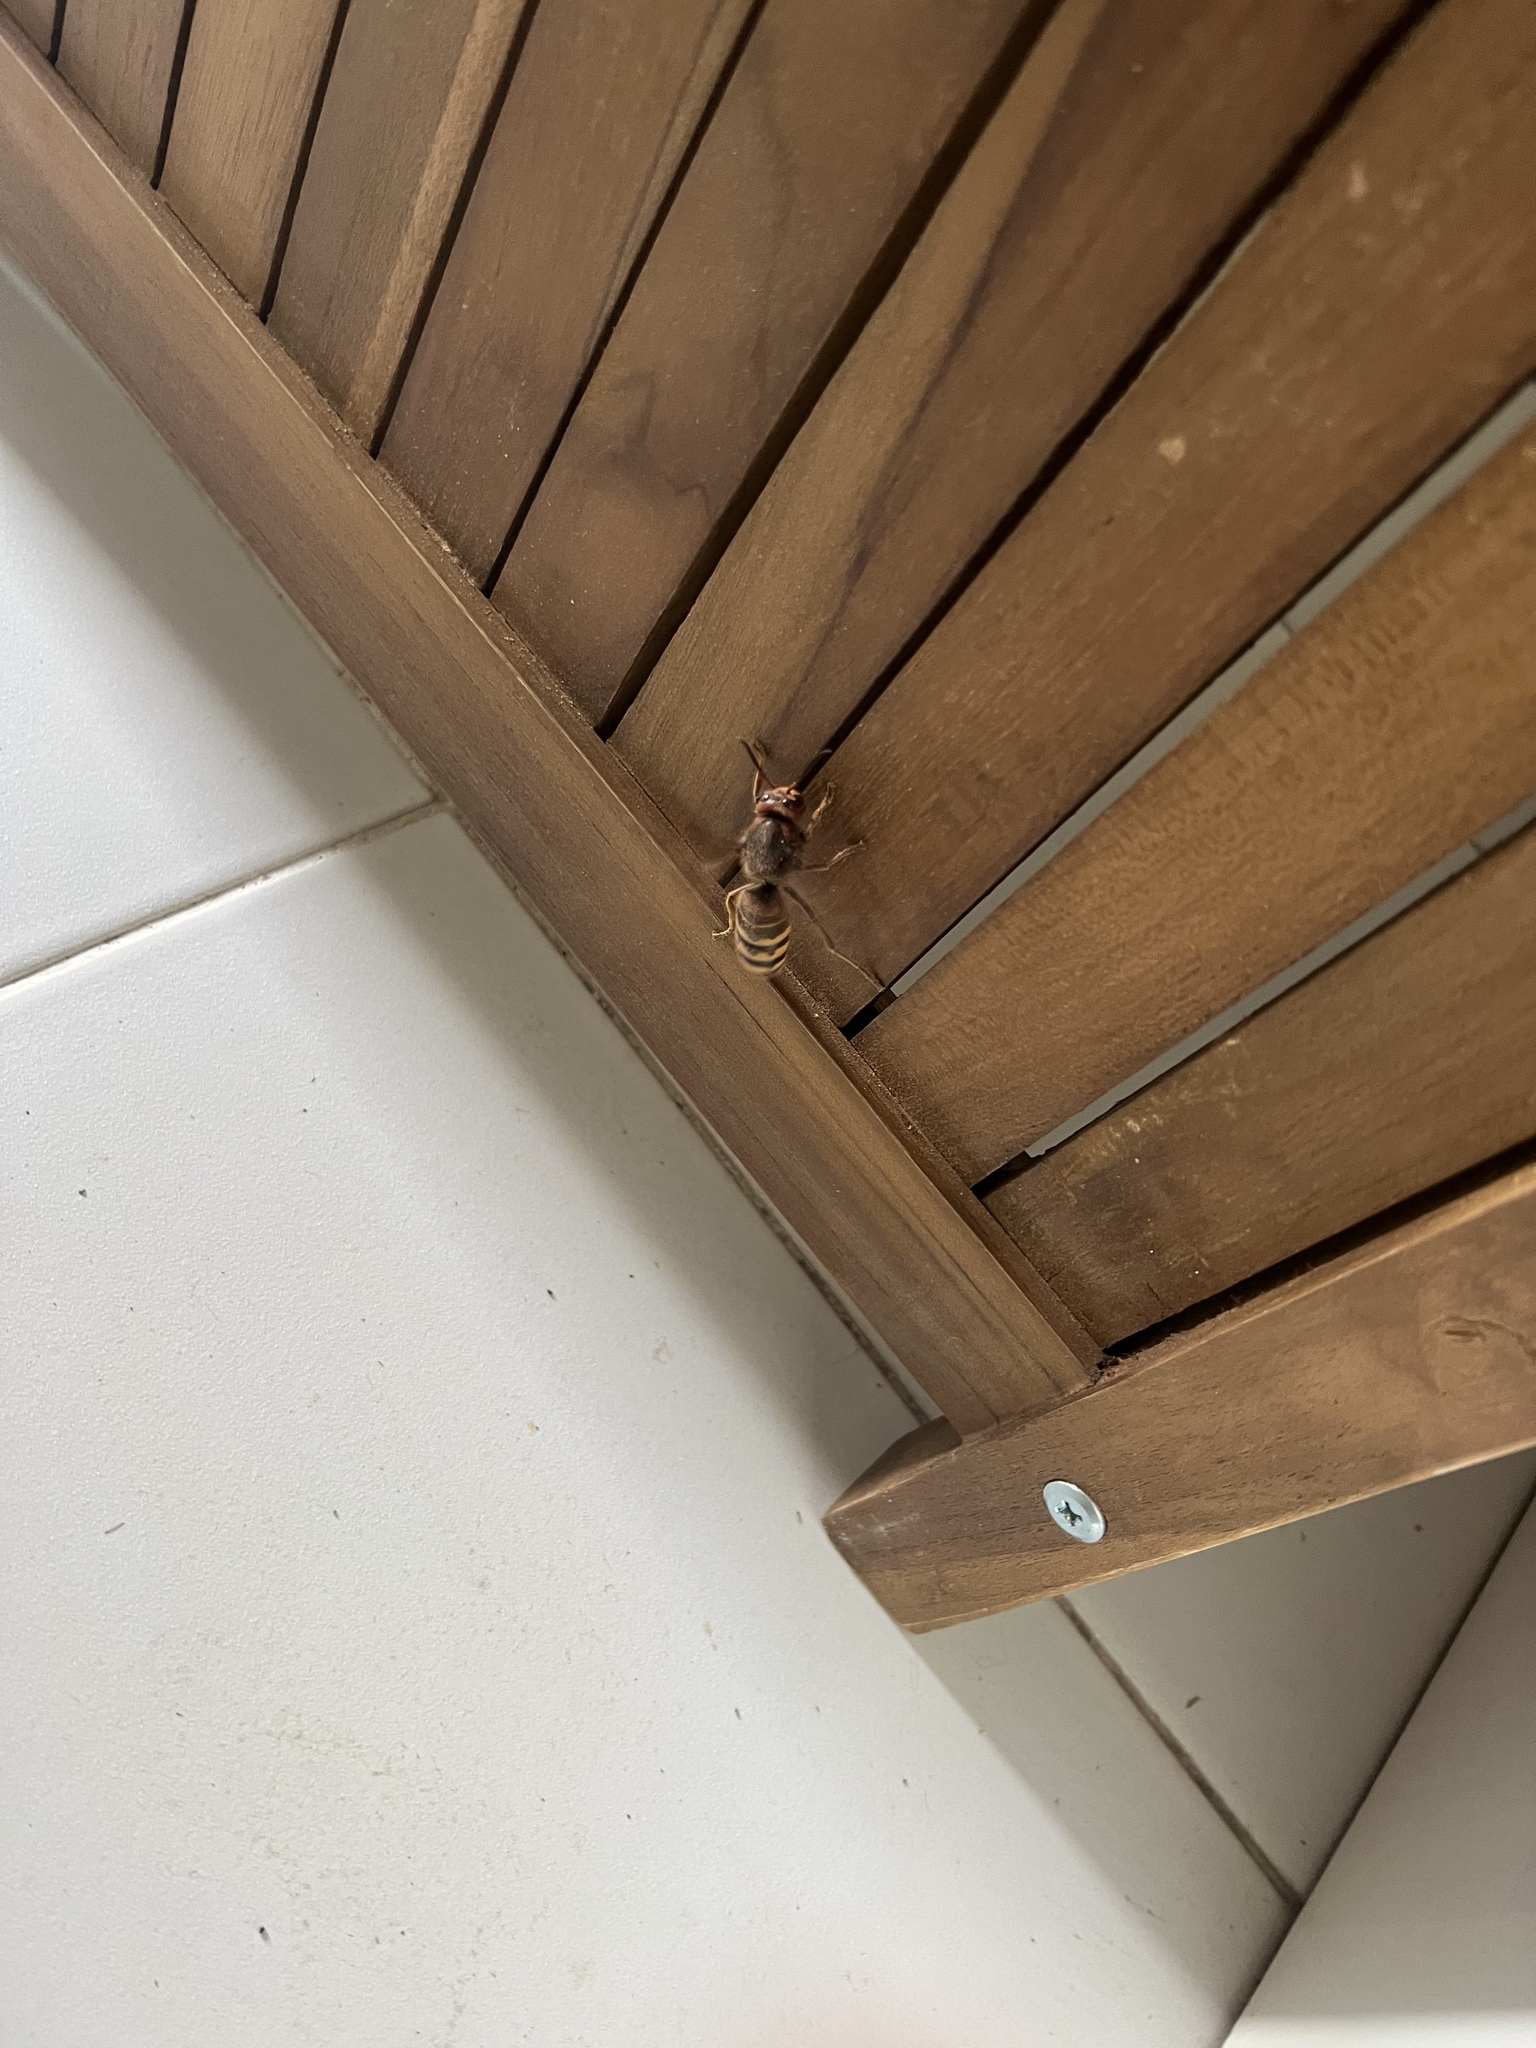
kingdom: Animalia
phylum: Arthropoda
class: Insecta
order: Hymenoptera
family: Vespidae
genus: Vespa
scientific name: Vespa crabro
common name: Hornet
